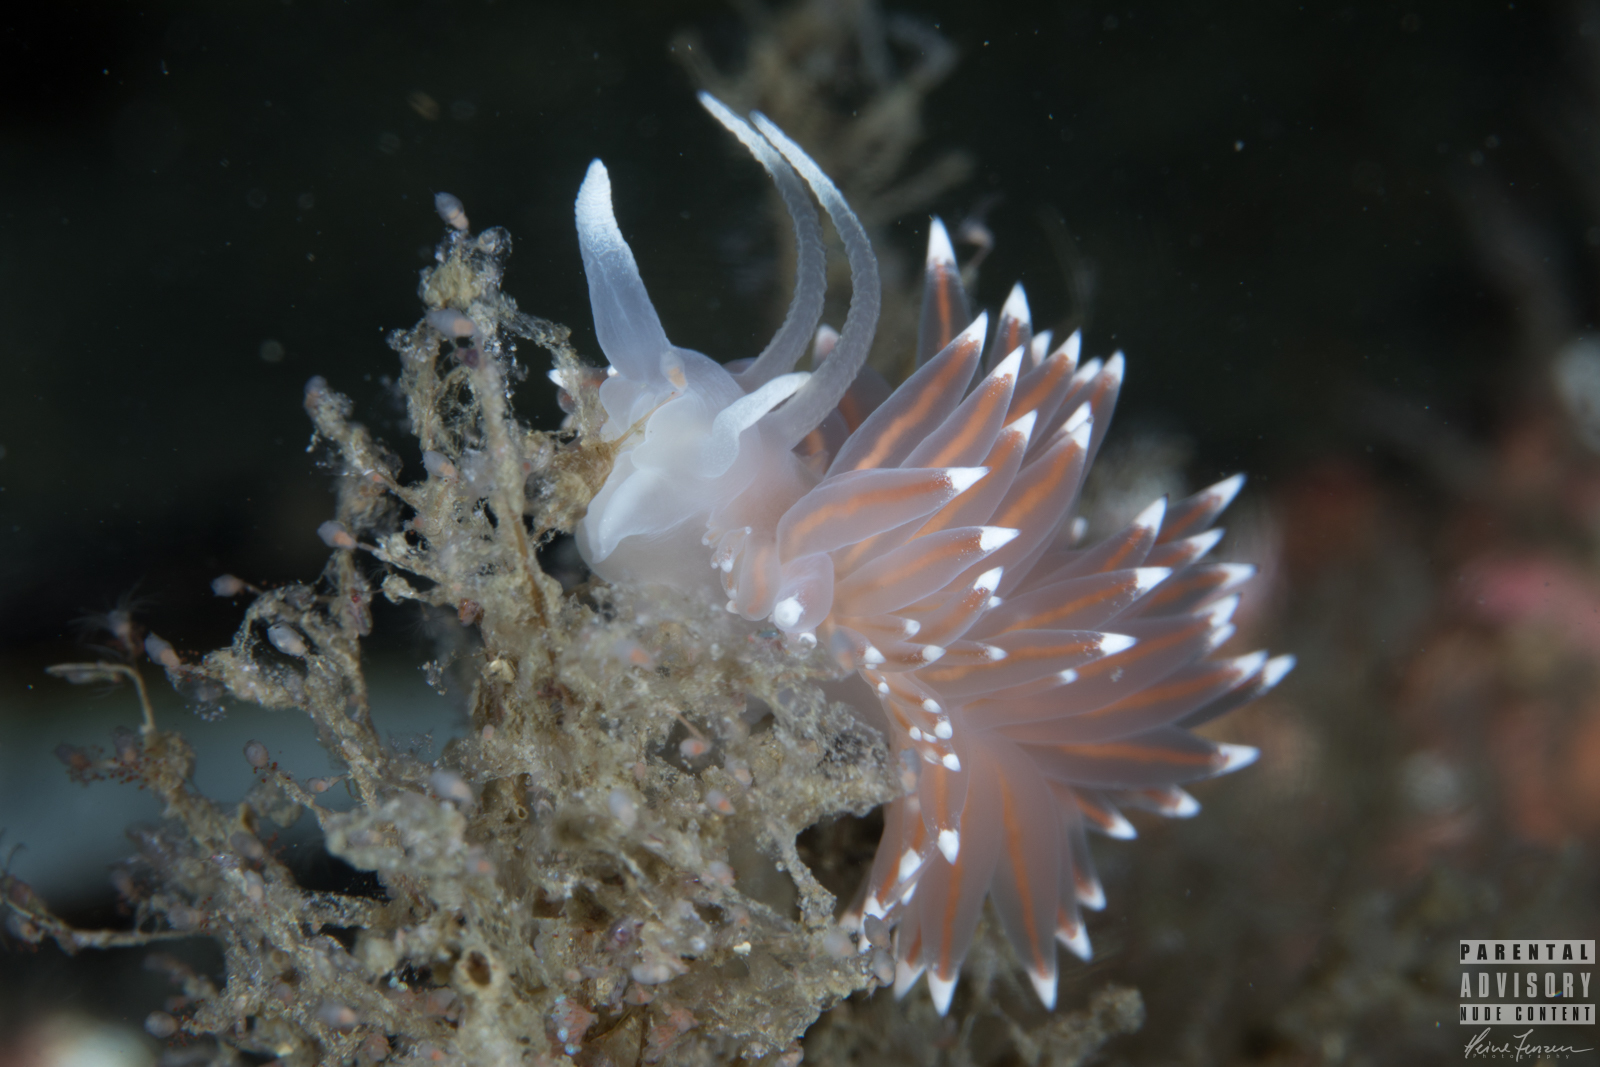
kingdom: Animalia
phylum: Mollusca
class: Gastropoda
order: Nudibranchia
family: Coryphellidae
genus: Coryphella
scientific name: Coryphella browni
